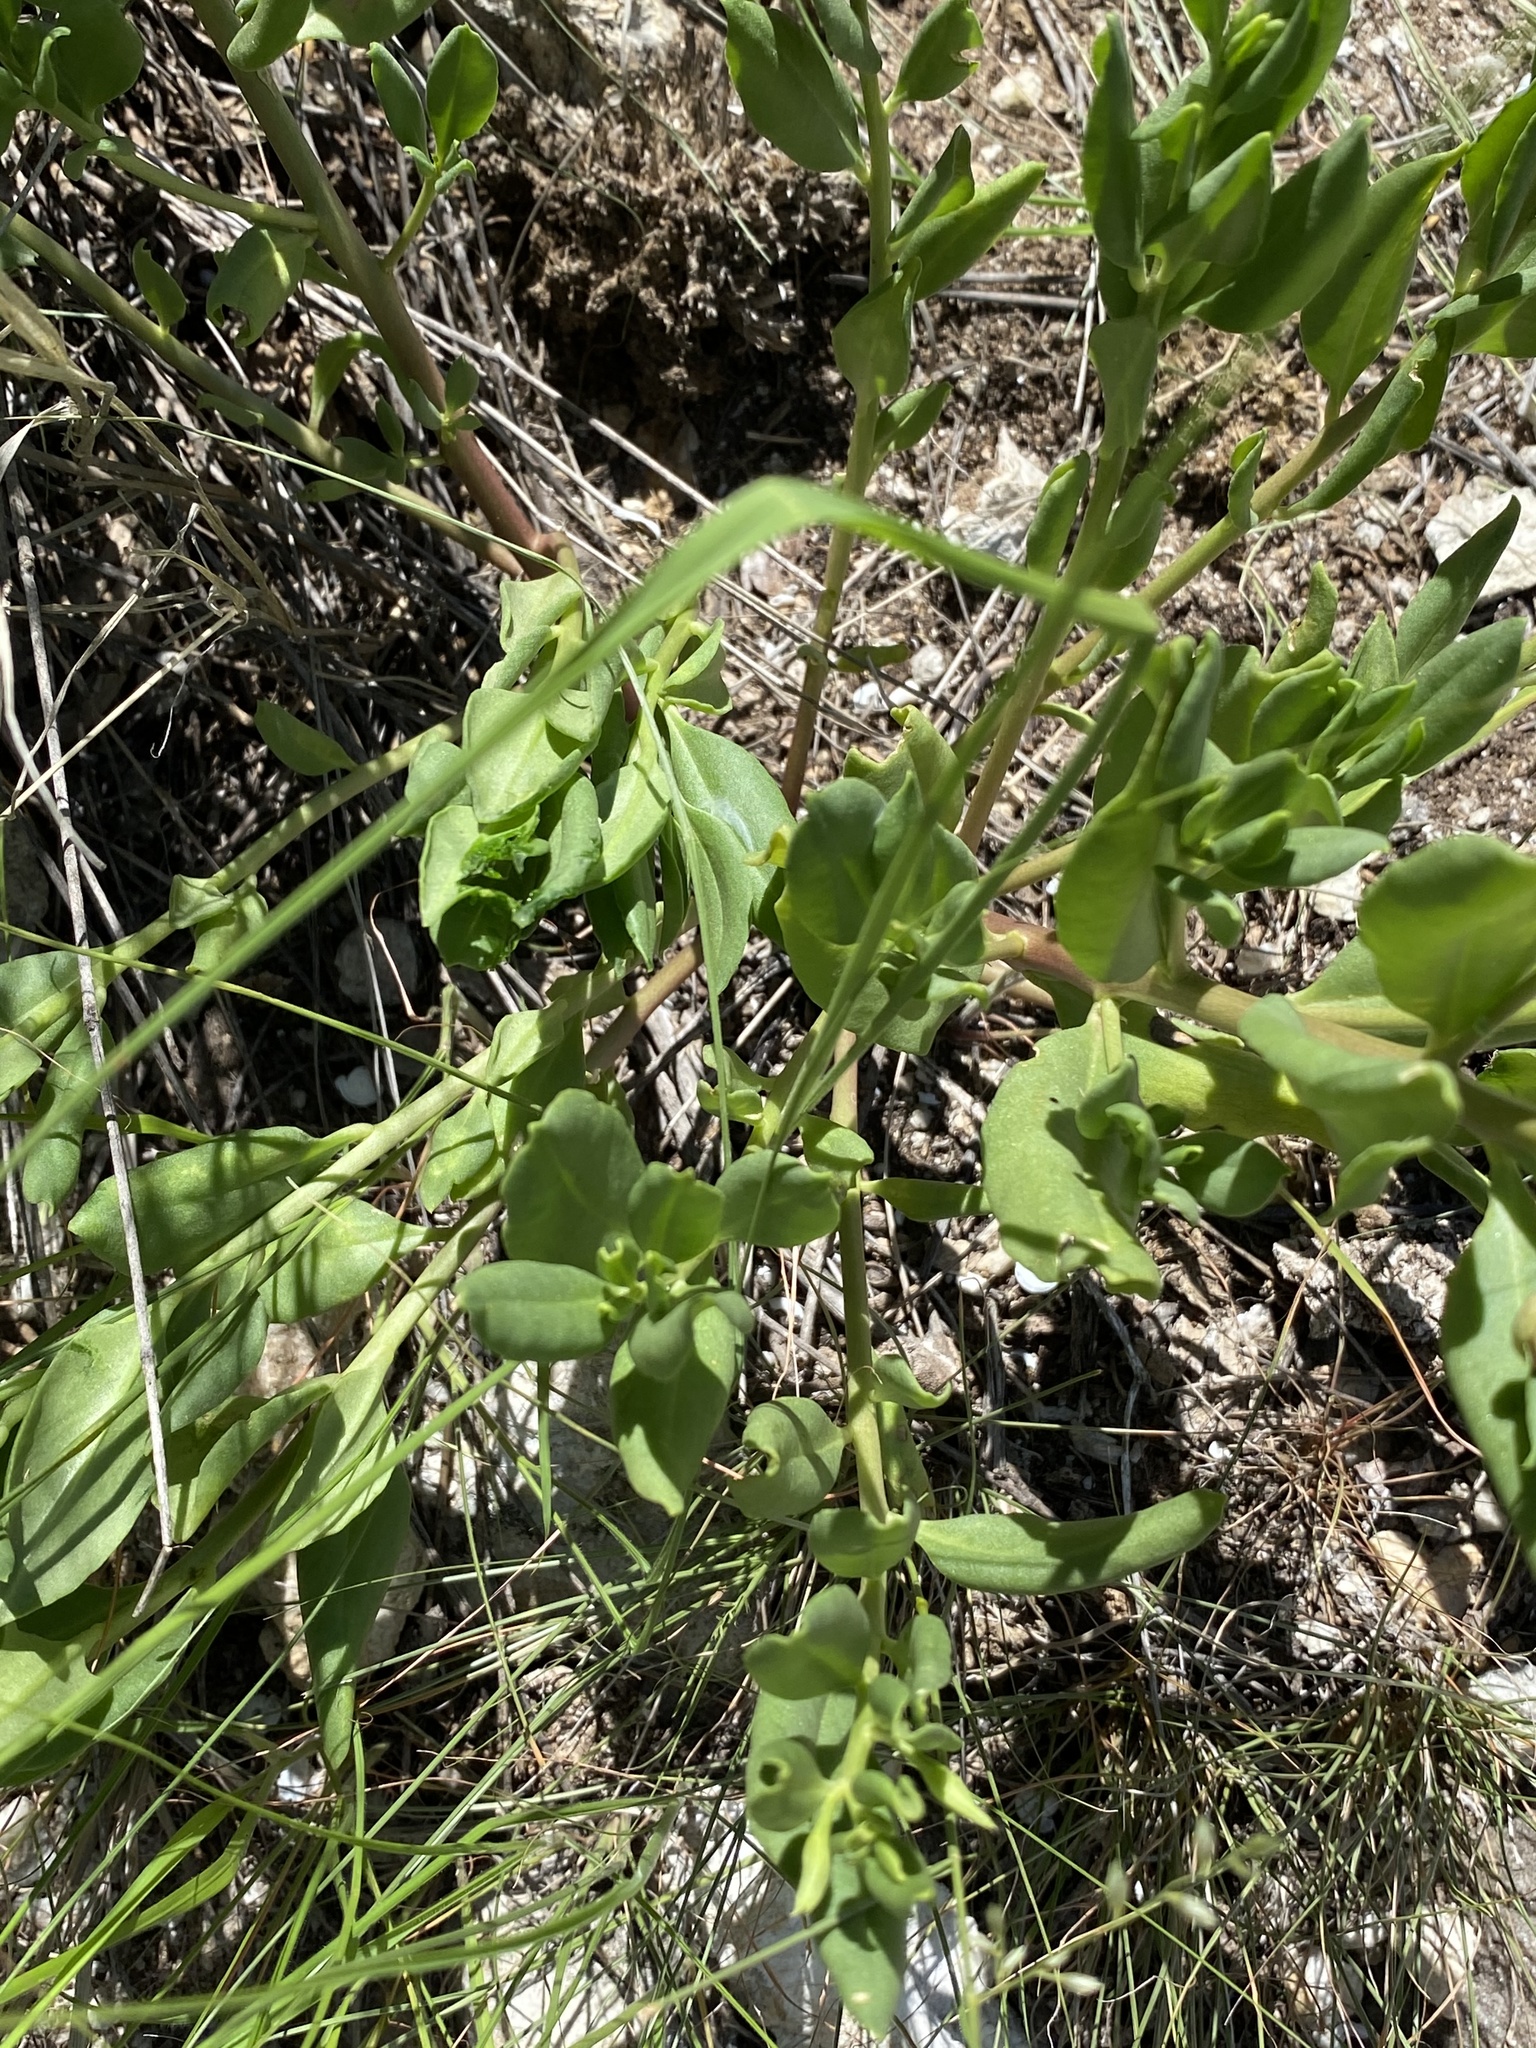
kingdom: Plantae
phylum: Tracheophyta
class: Magnoliopsida
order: Caryophyllales
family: Talinaceae
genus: Talinum
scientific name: Talinum arnotii
